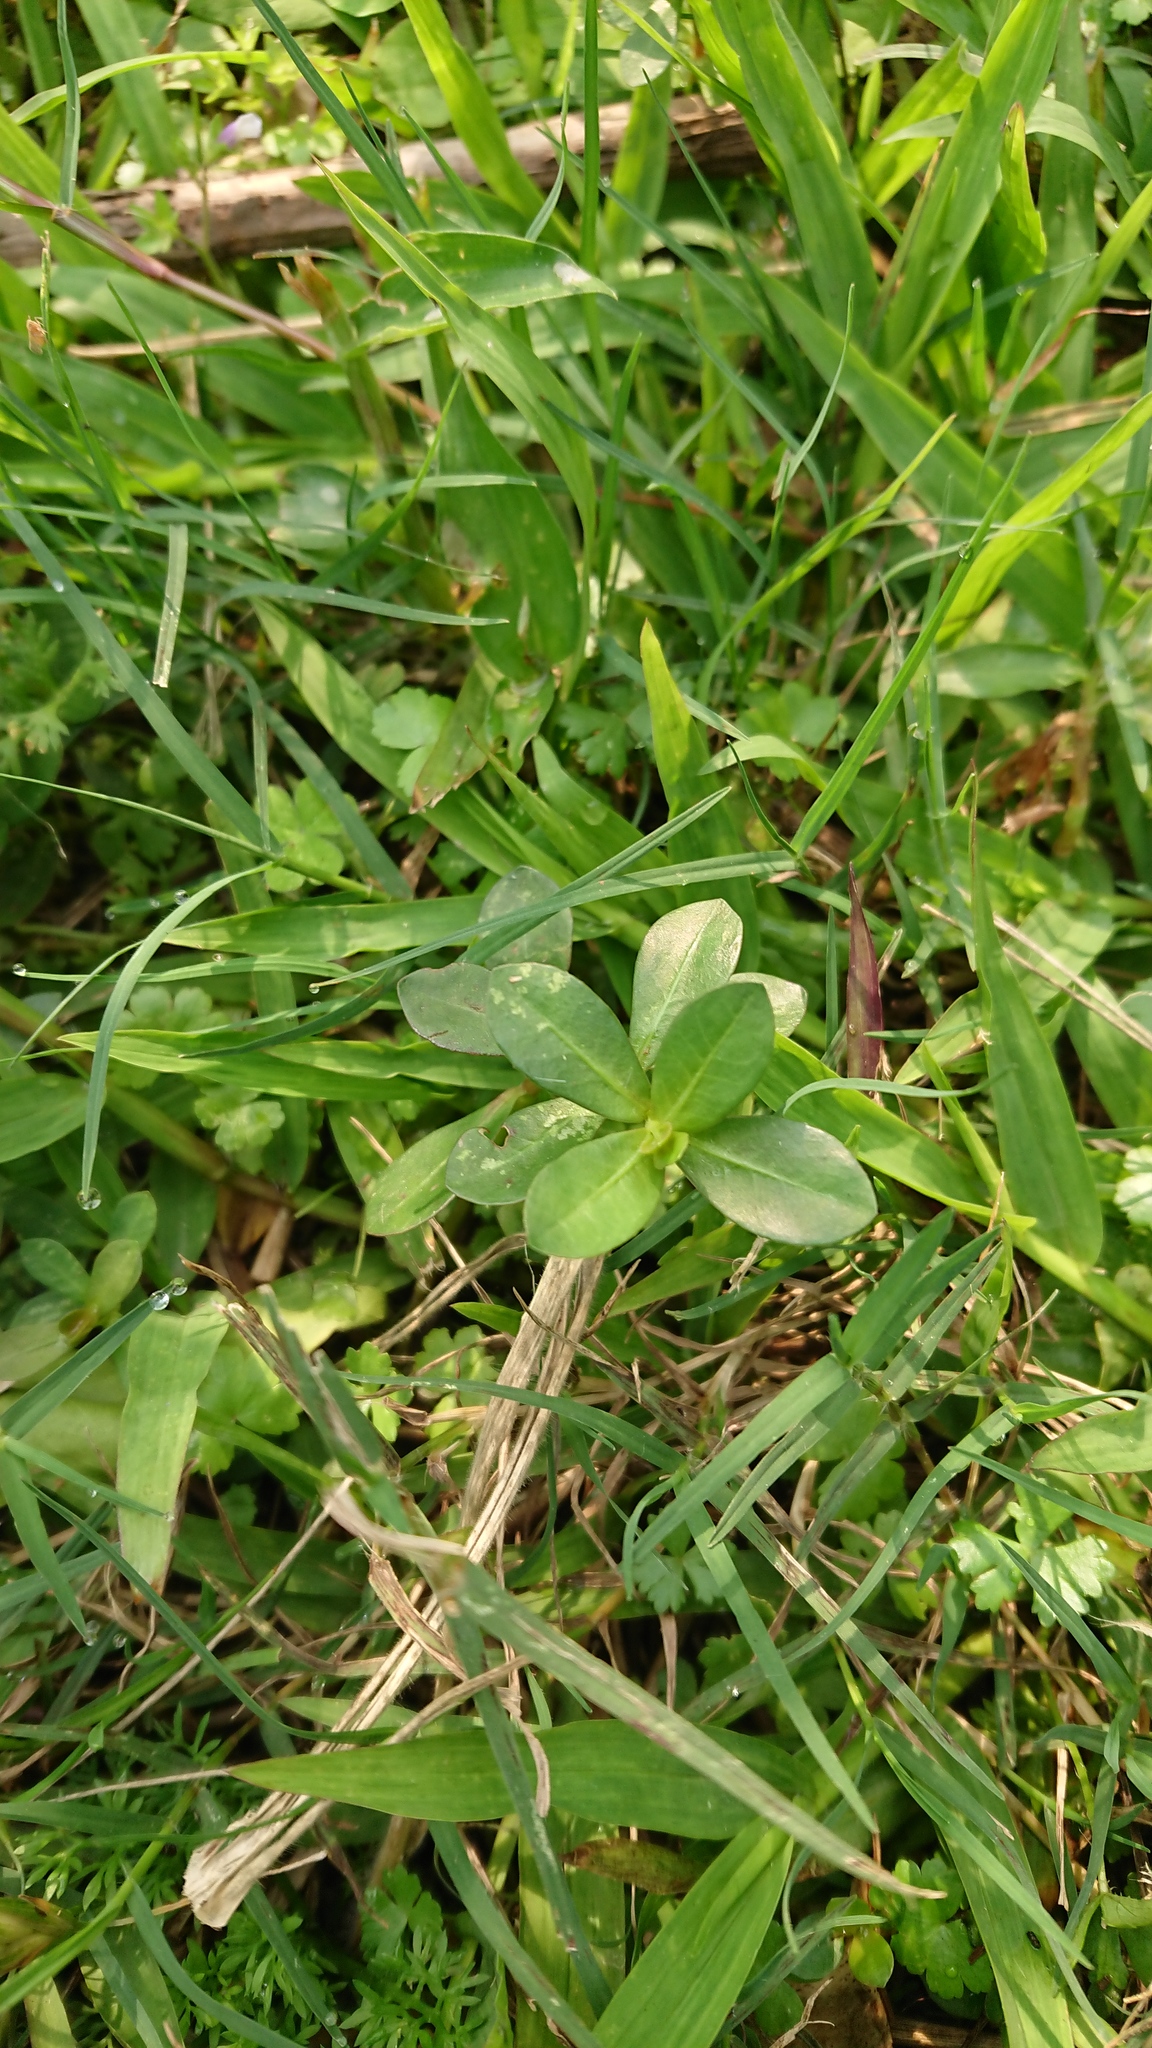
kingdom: Plantae
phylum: Tracheophyta
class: Magnoliopsida
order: Caryophyllales
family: Amaranthaceae
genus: Alternanthera
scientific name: Alternanthera philoxeroides
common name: Alligatorweed
